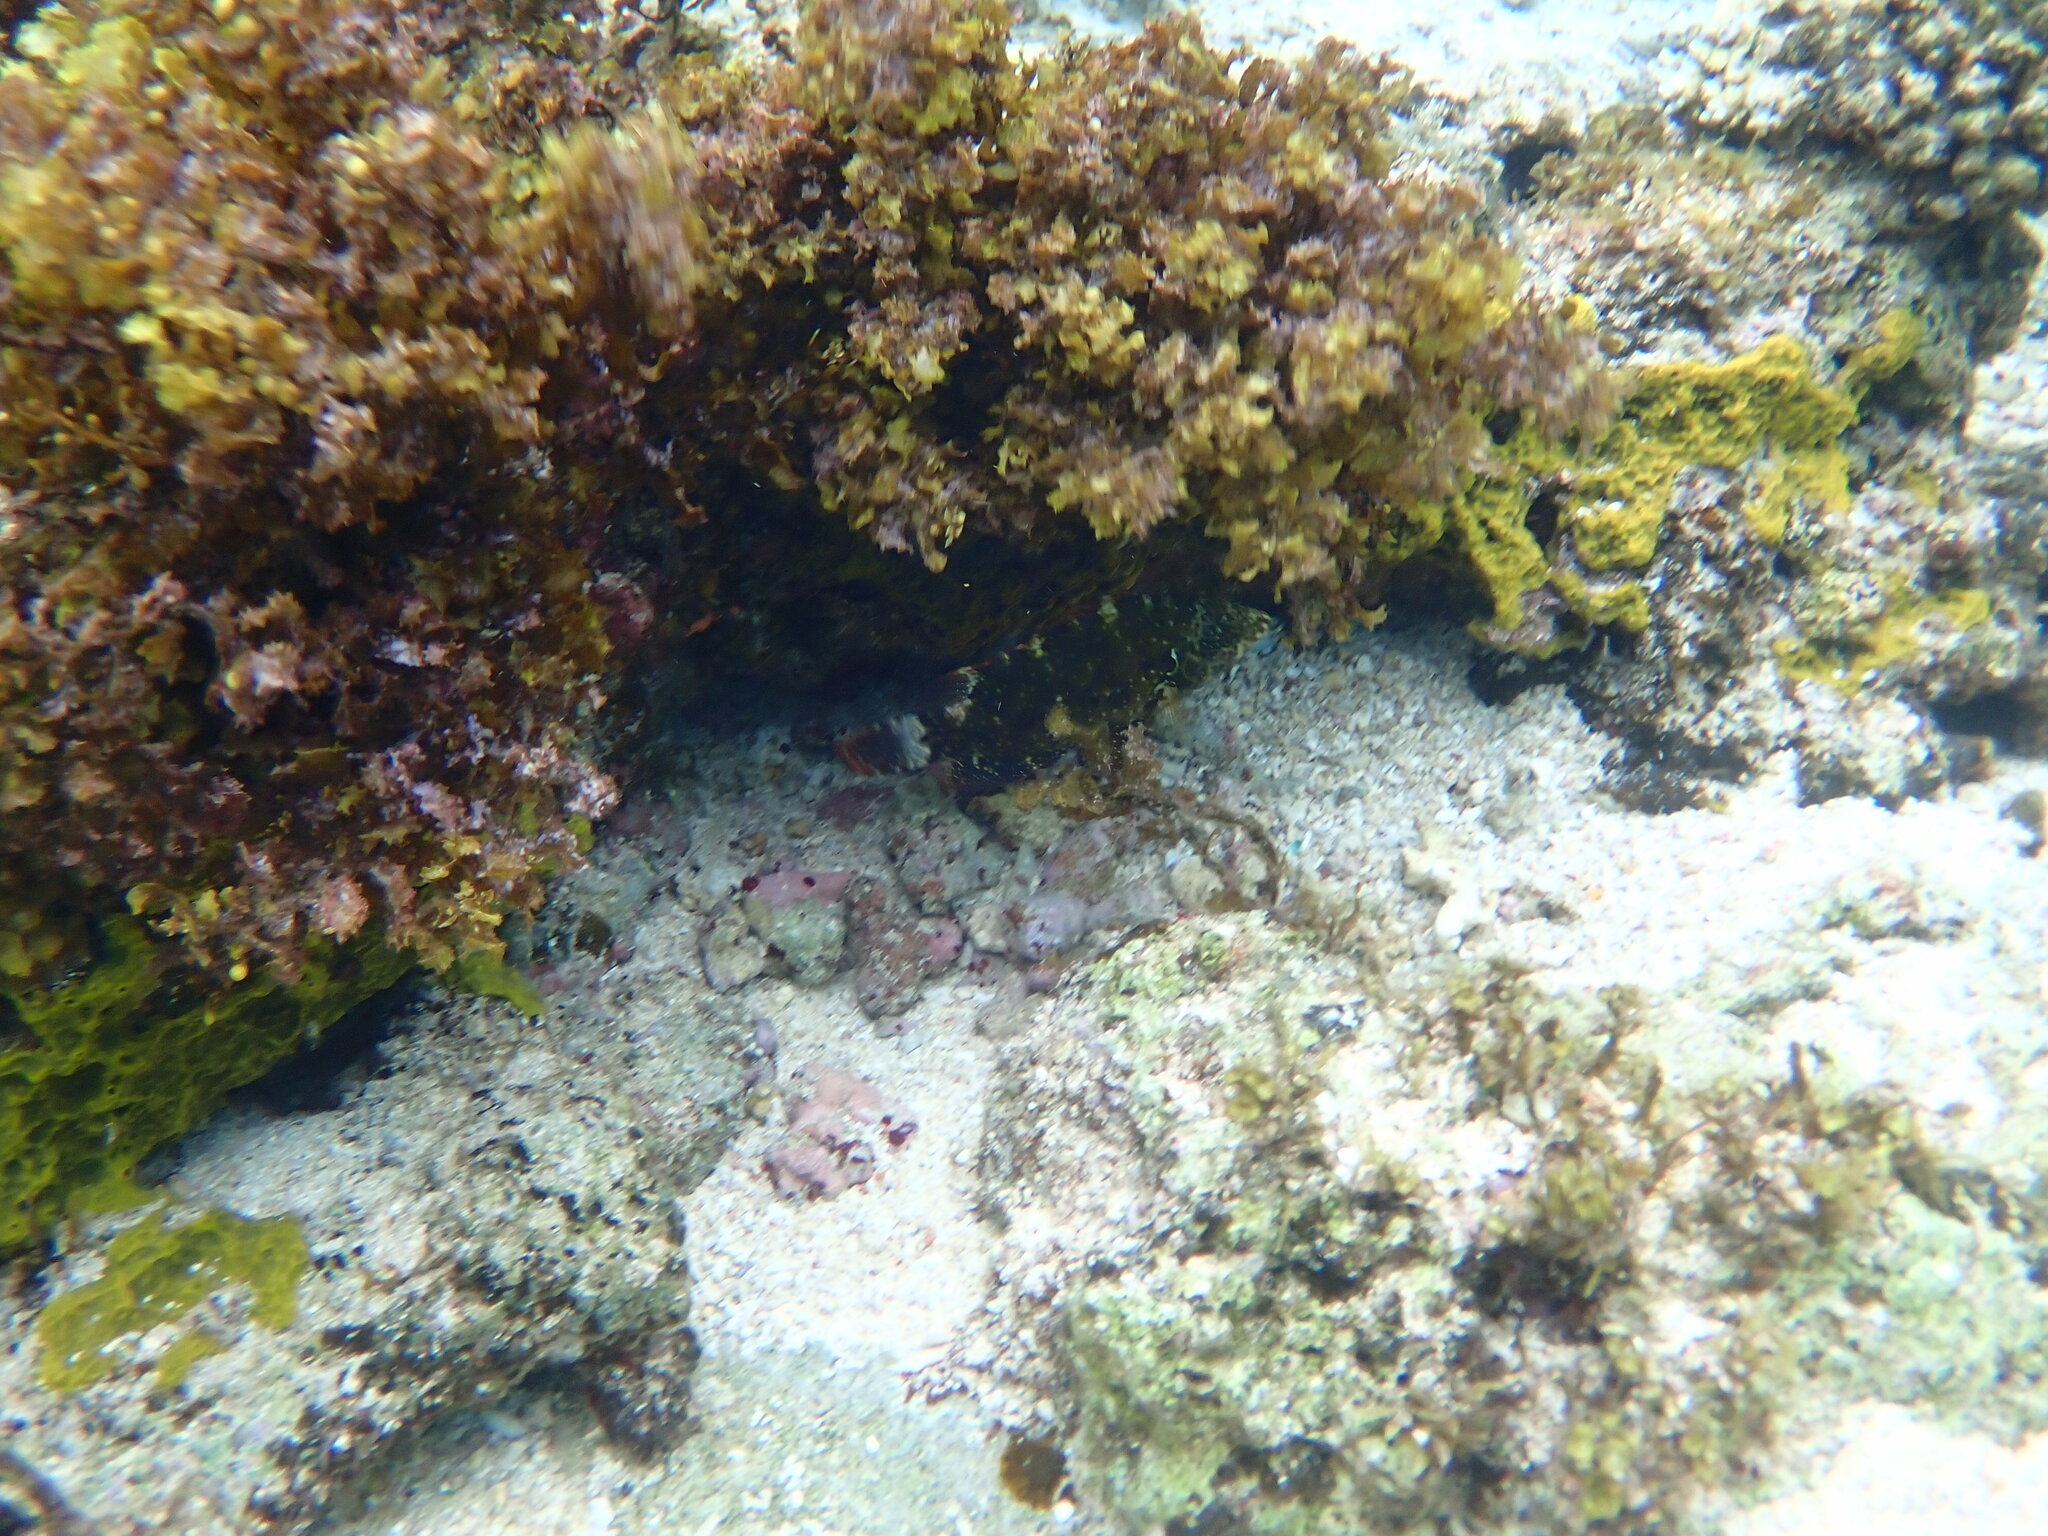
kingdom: Animalia
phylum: Chordata
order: Perciformes
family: Labridae
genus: Cheilinus
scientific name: Cheilinus chlorourus
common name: Floral wrasse
